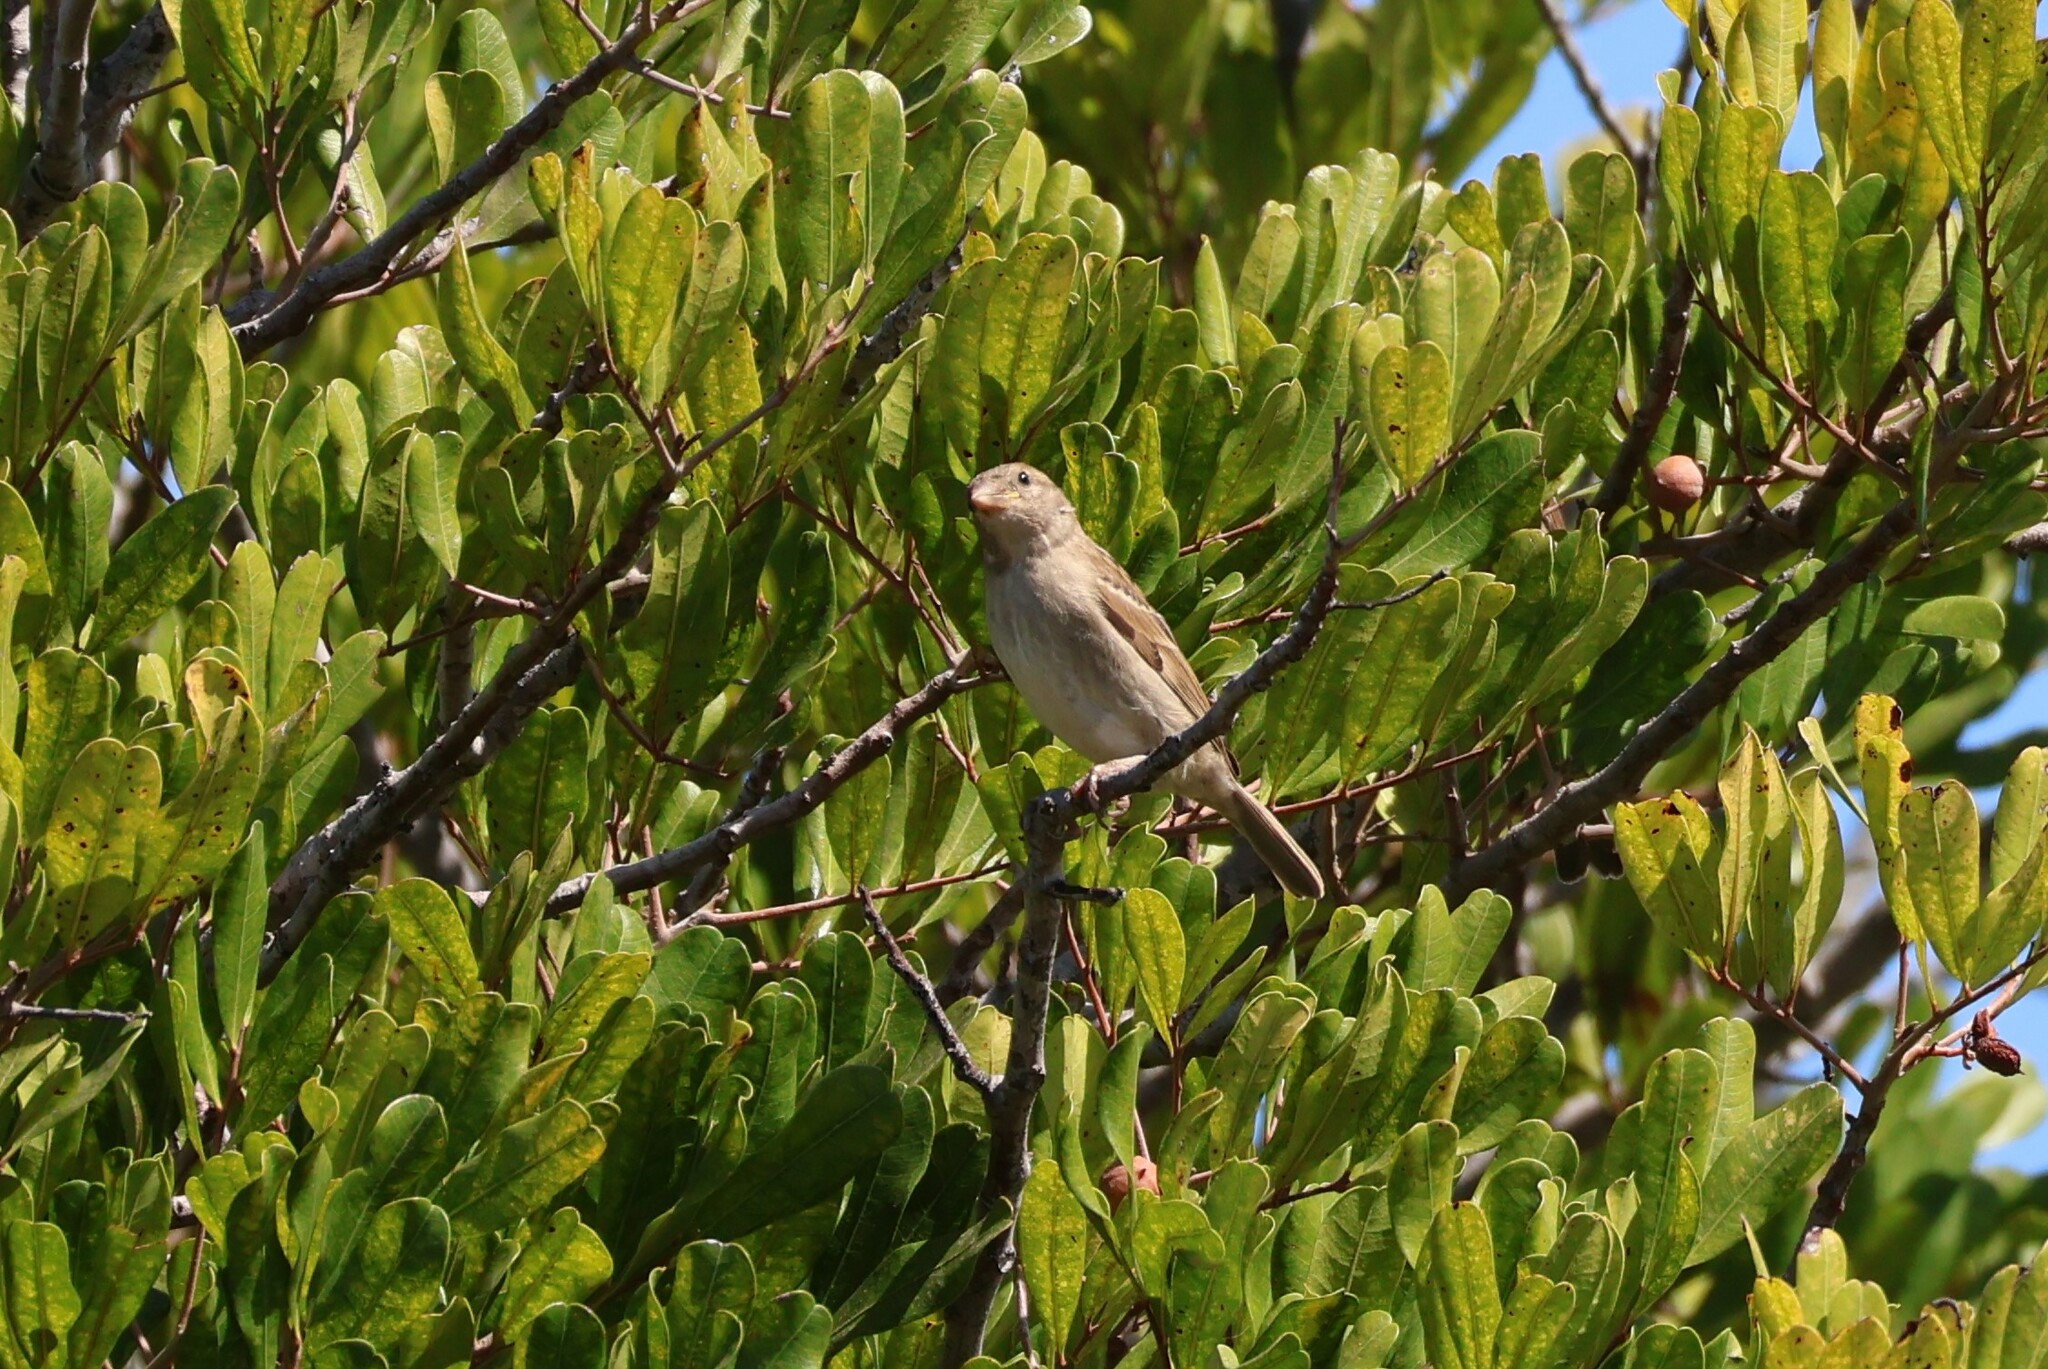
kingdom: Animalia
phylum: Chordata
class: Aves
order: Passeriformes
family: Passeridae
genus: Passer
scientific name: Passer domesticus
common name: House sparrow
